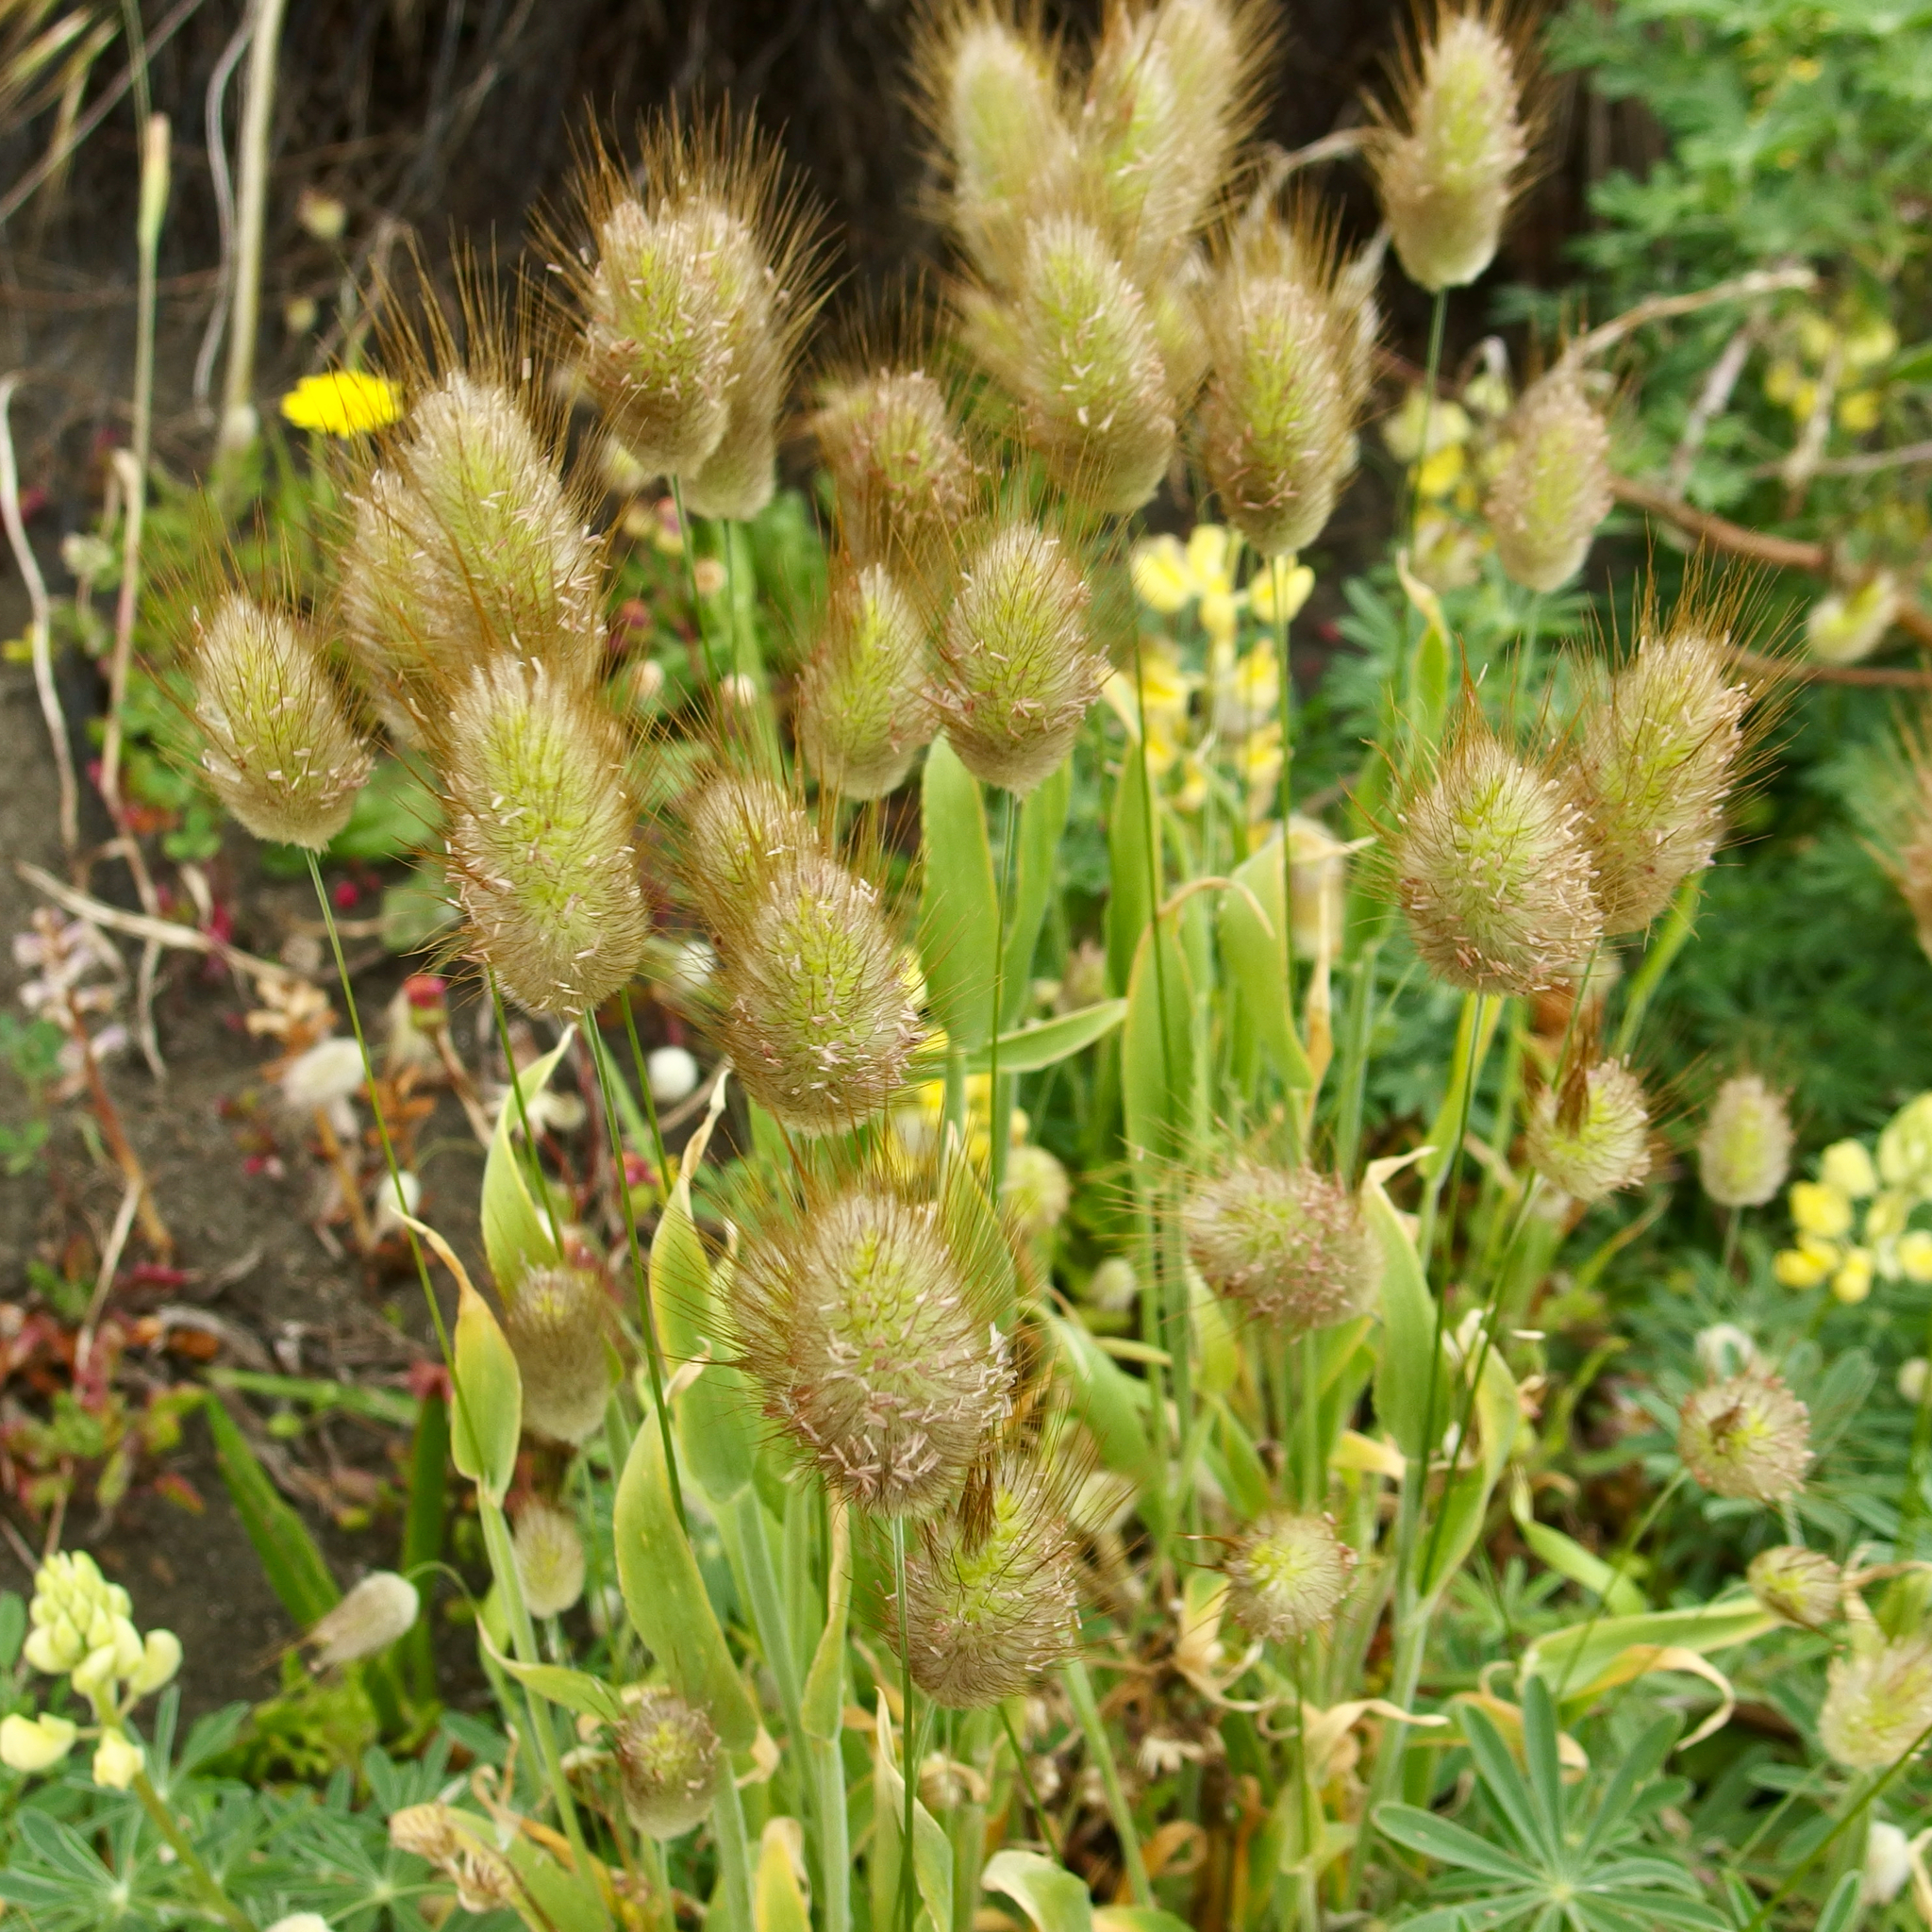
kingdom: Plantae
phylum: Tracheophyta
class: Liliopsida
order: Poales
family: Poaceae
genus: Lagurus
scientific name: Lagurus ovatus
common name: Hare's-tail
